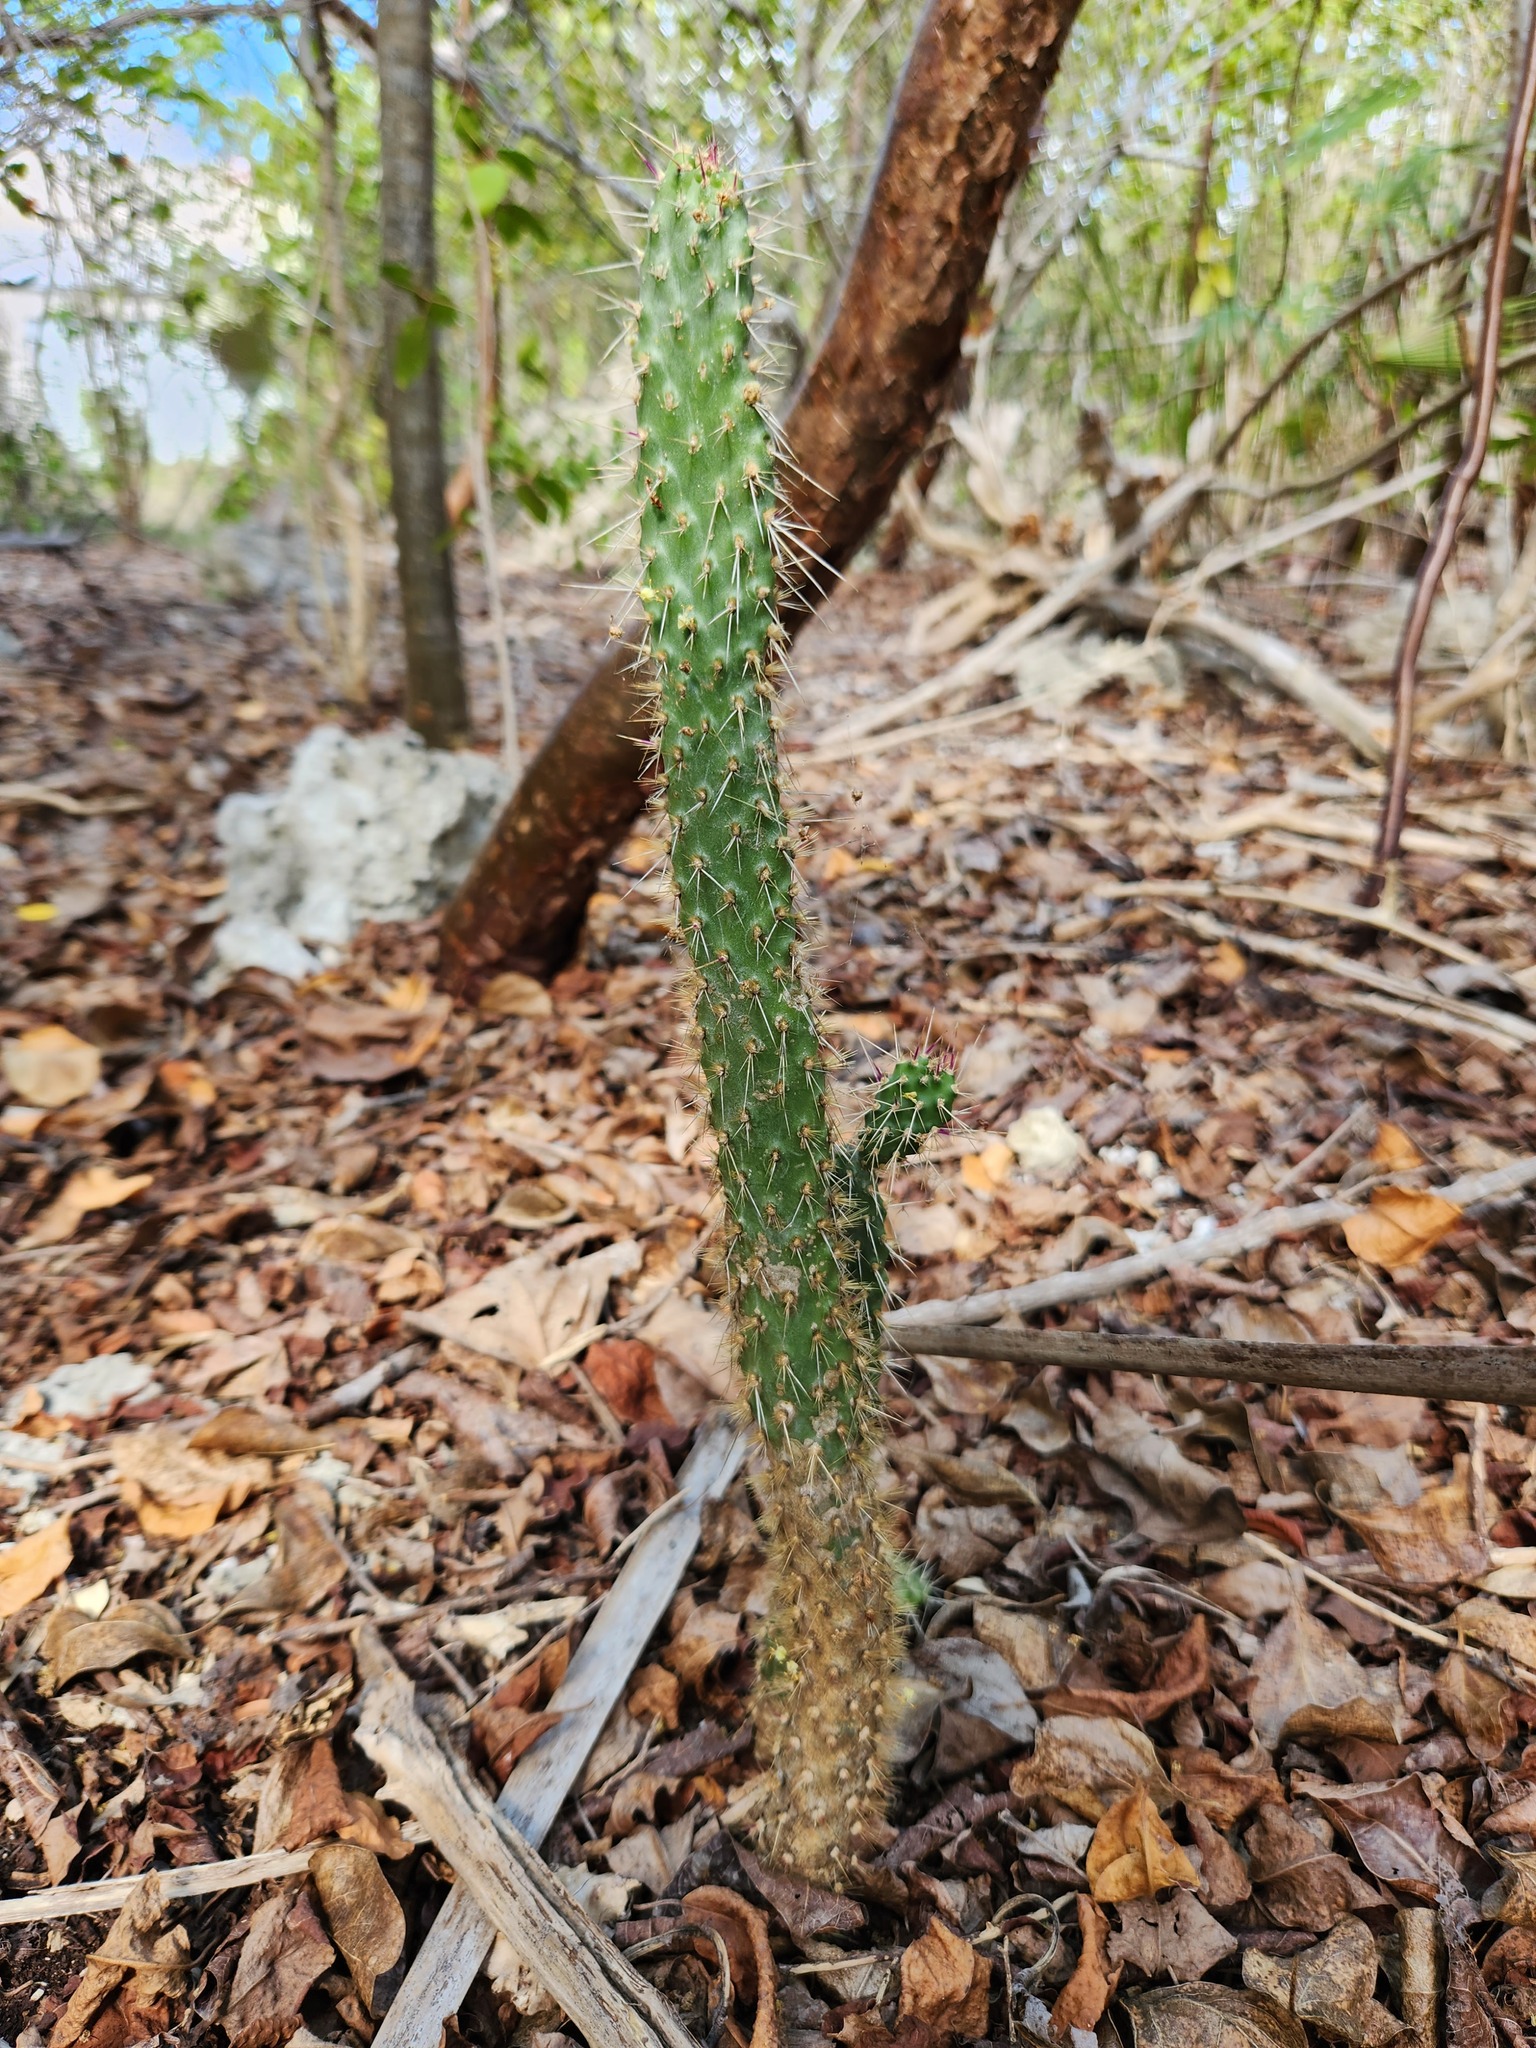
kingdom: Plantae
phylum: Tracheophyta
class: Magnoliopsida
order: Caryophyllales
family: Cactaceae
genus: Consolea
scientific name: Consolea macracantha
